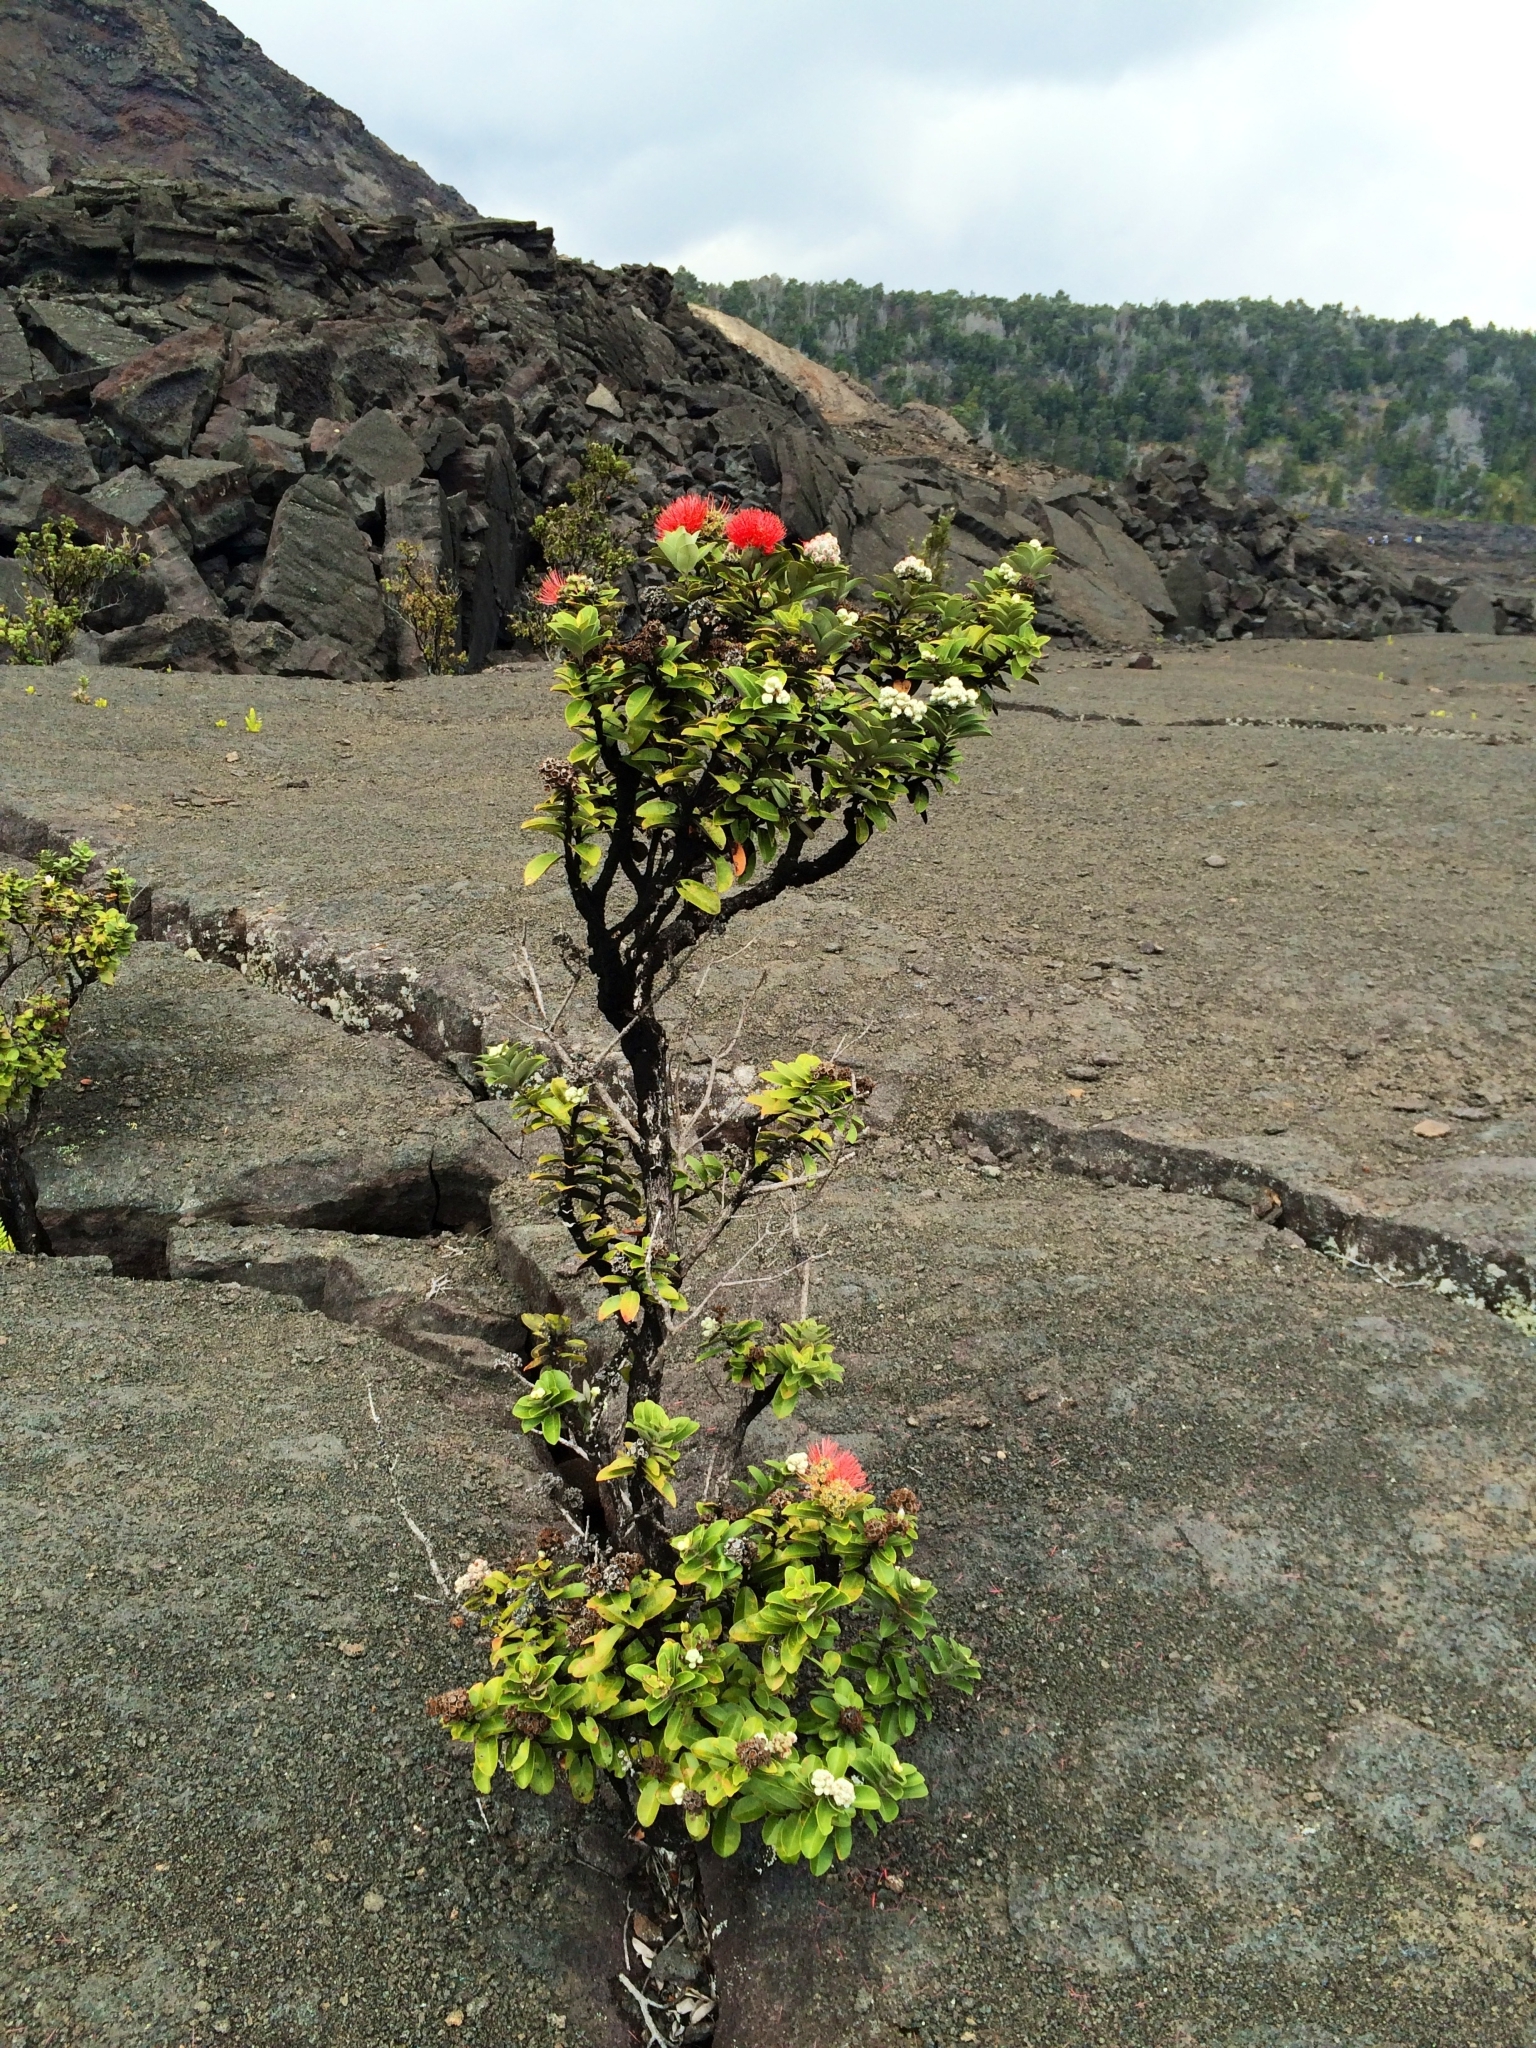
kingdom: Plantae
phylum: Tracheophyta
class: Magnoliopsida
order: Myrtales
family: Myrtaceae
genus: Metrosideros
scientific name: Metrosideros polymorpha
